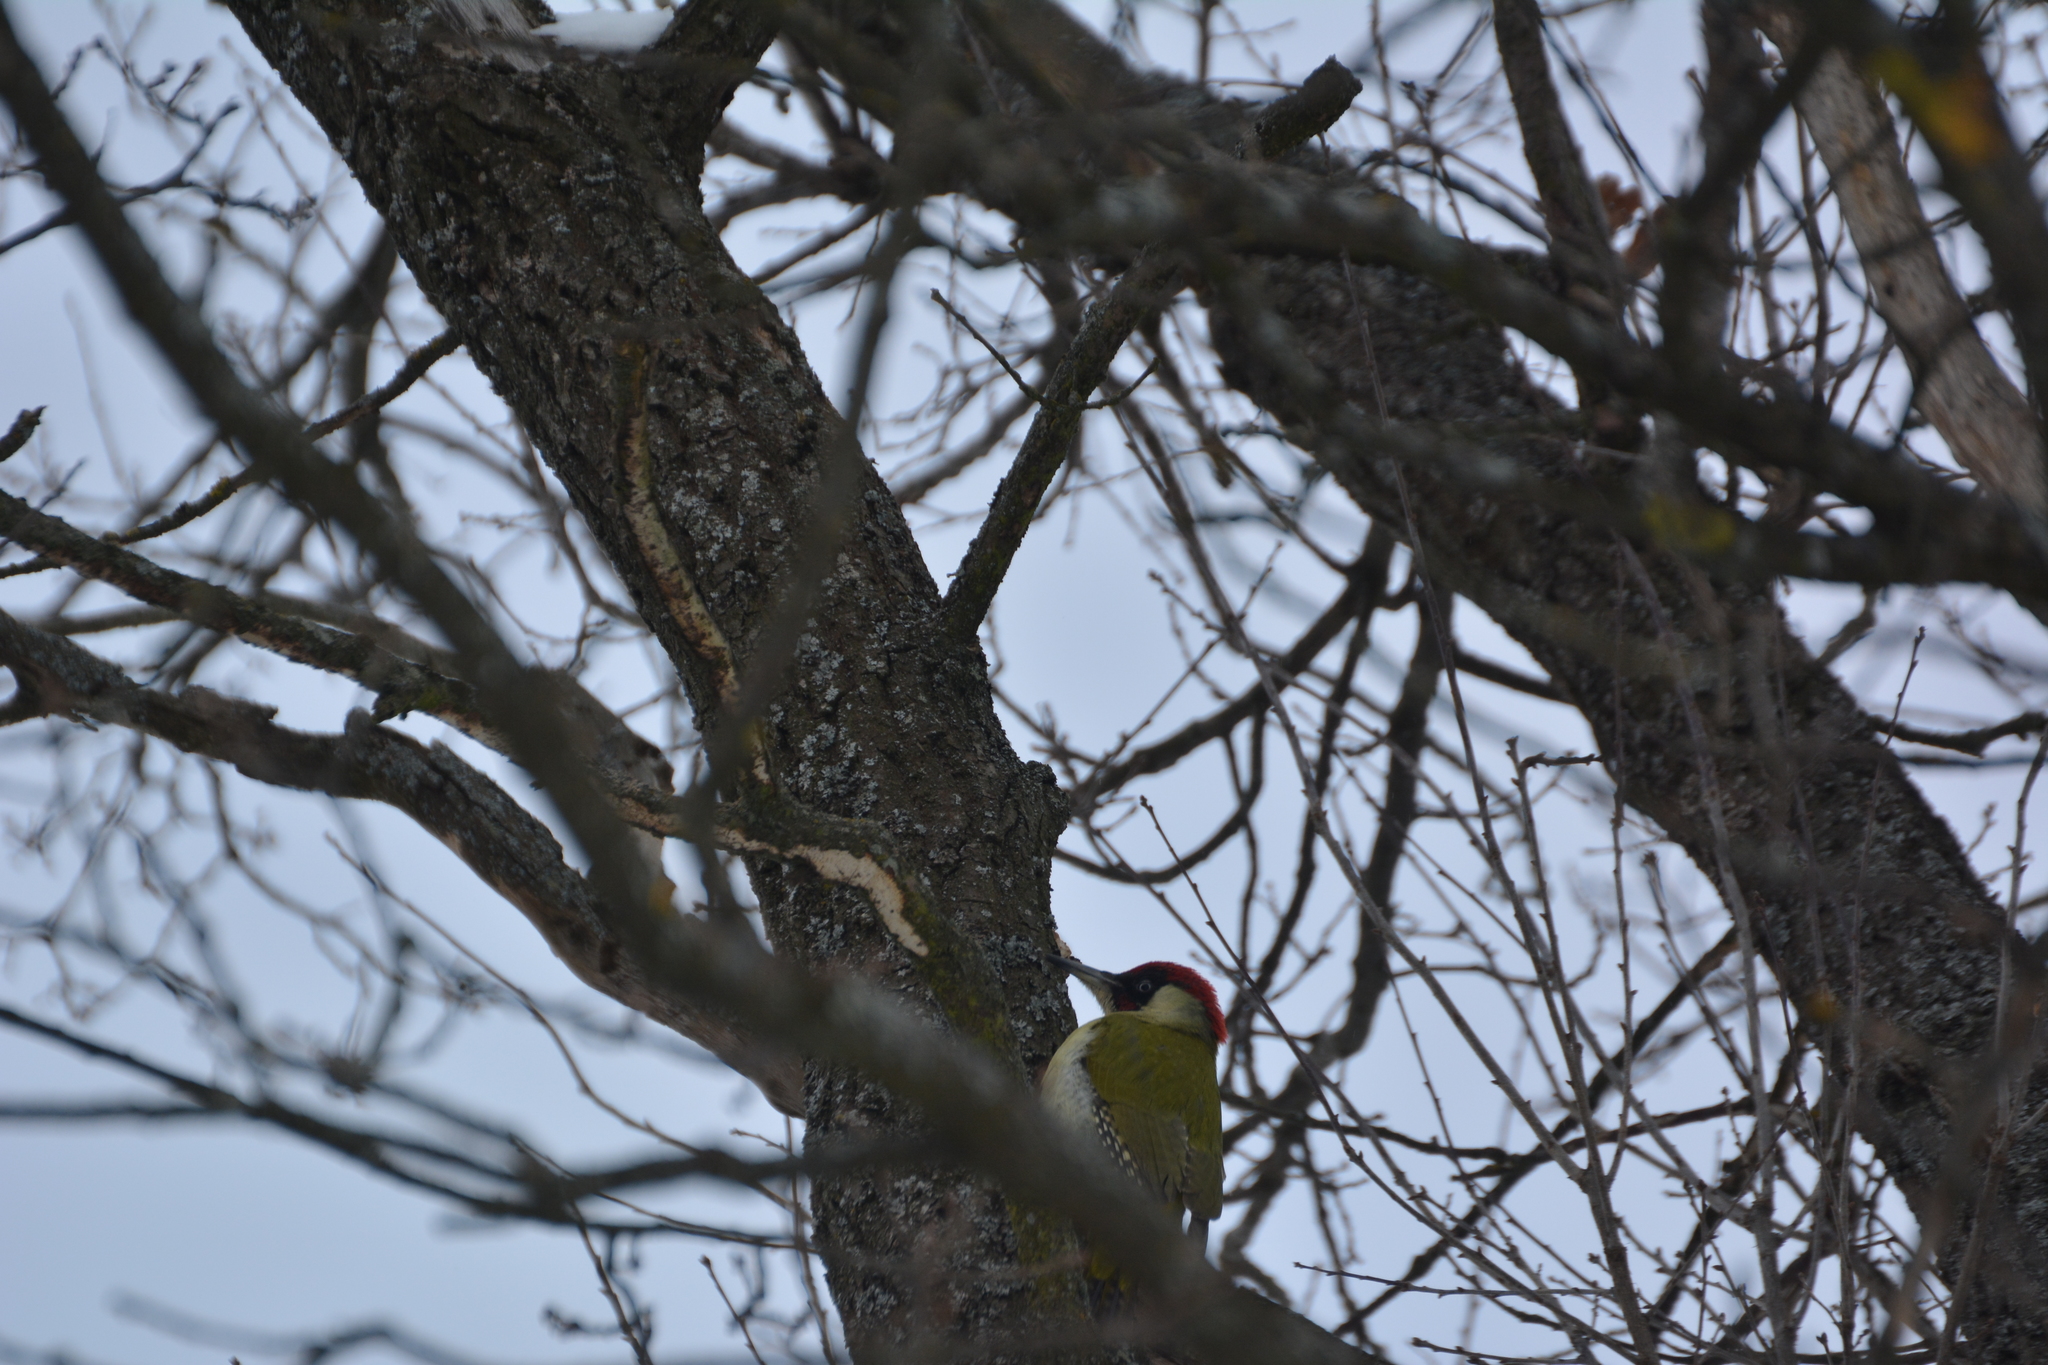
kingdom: Animalia
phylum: Chordata
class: Aves
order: Piciformes
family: Picidae
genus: Picus
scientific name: Picus viridis
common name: European green woodpecker
